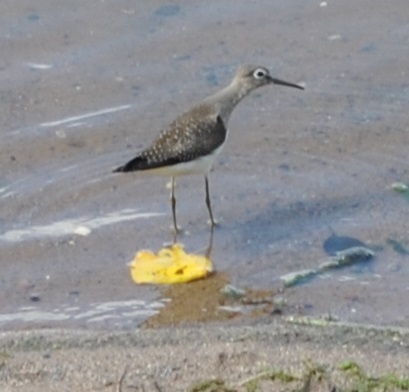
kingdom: Animalia
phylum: Chordata
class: Aves
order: Charadriiformes
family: Scolopacidae
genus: Tringa
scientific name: Tringa solitaria
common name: Solitary sandpiper
